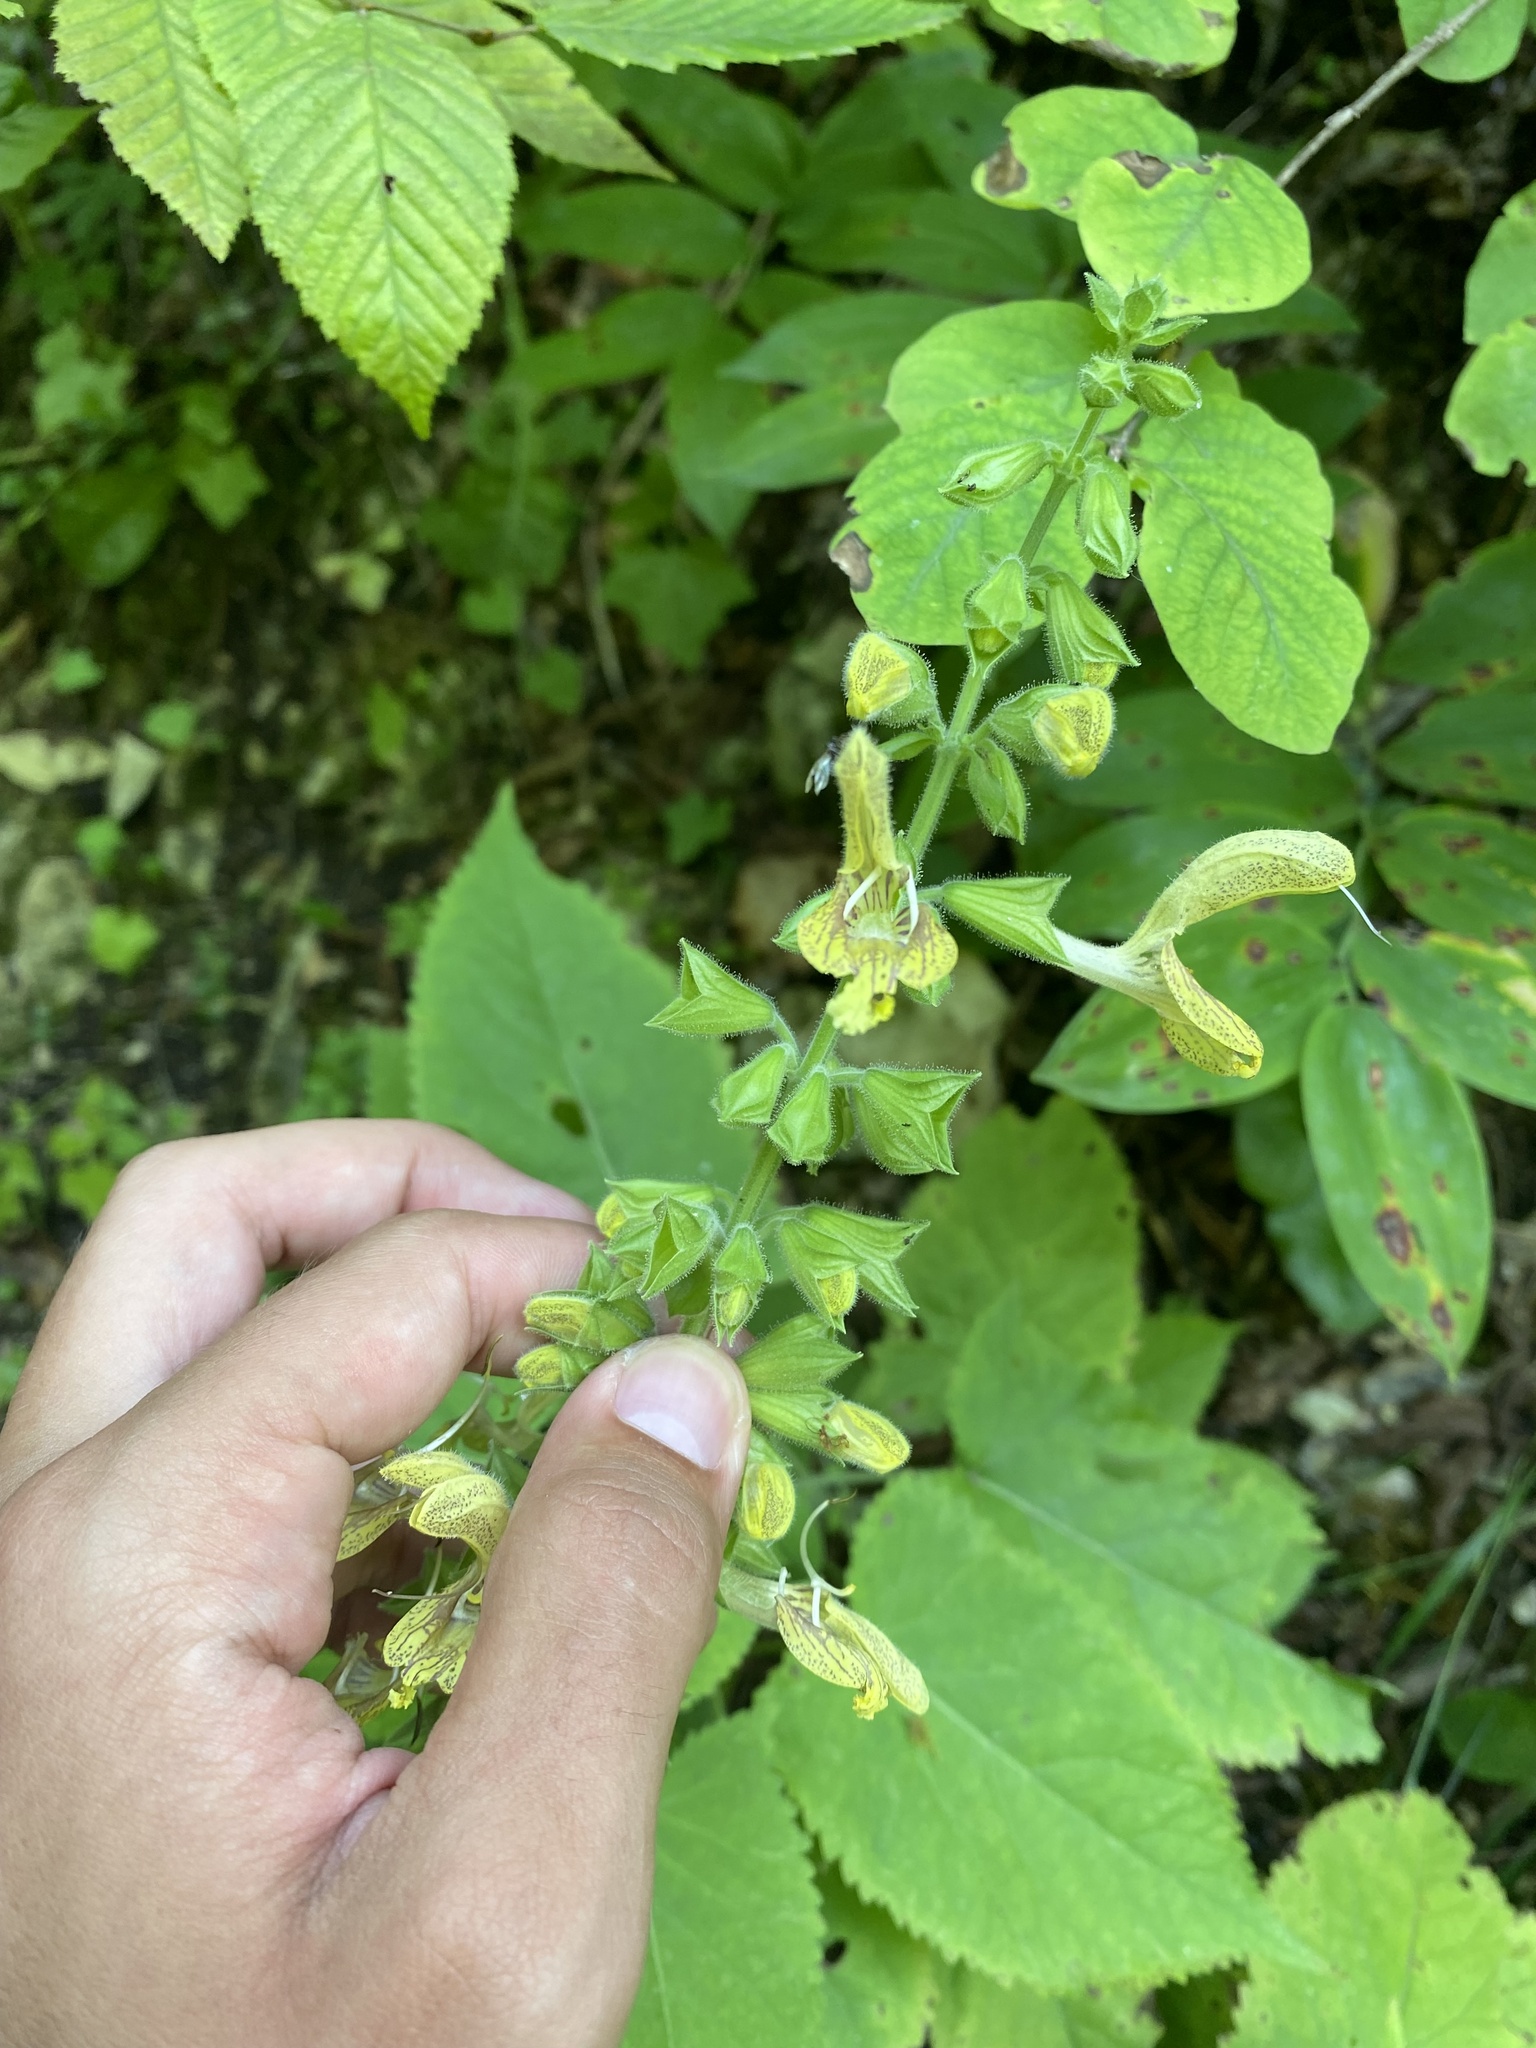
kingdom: Plantae
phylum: Tracheophyta
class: Magnoliopsida
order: Lamiales
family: Lamiaceae
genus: Salvia
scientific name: Salvia glutinosa
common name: Sticky clary
